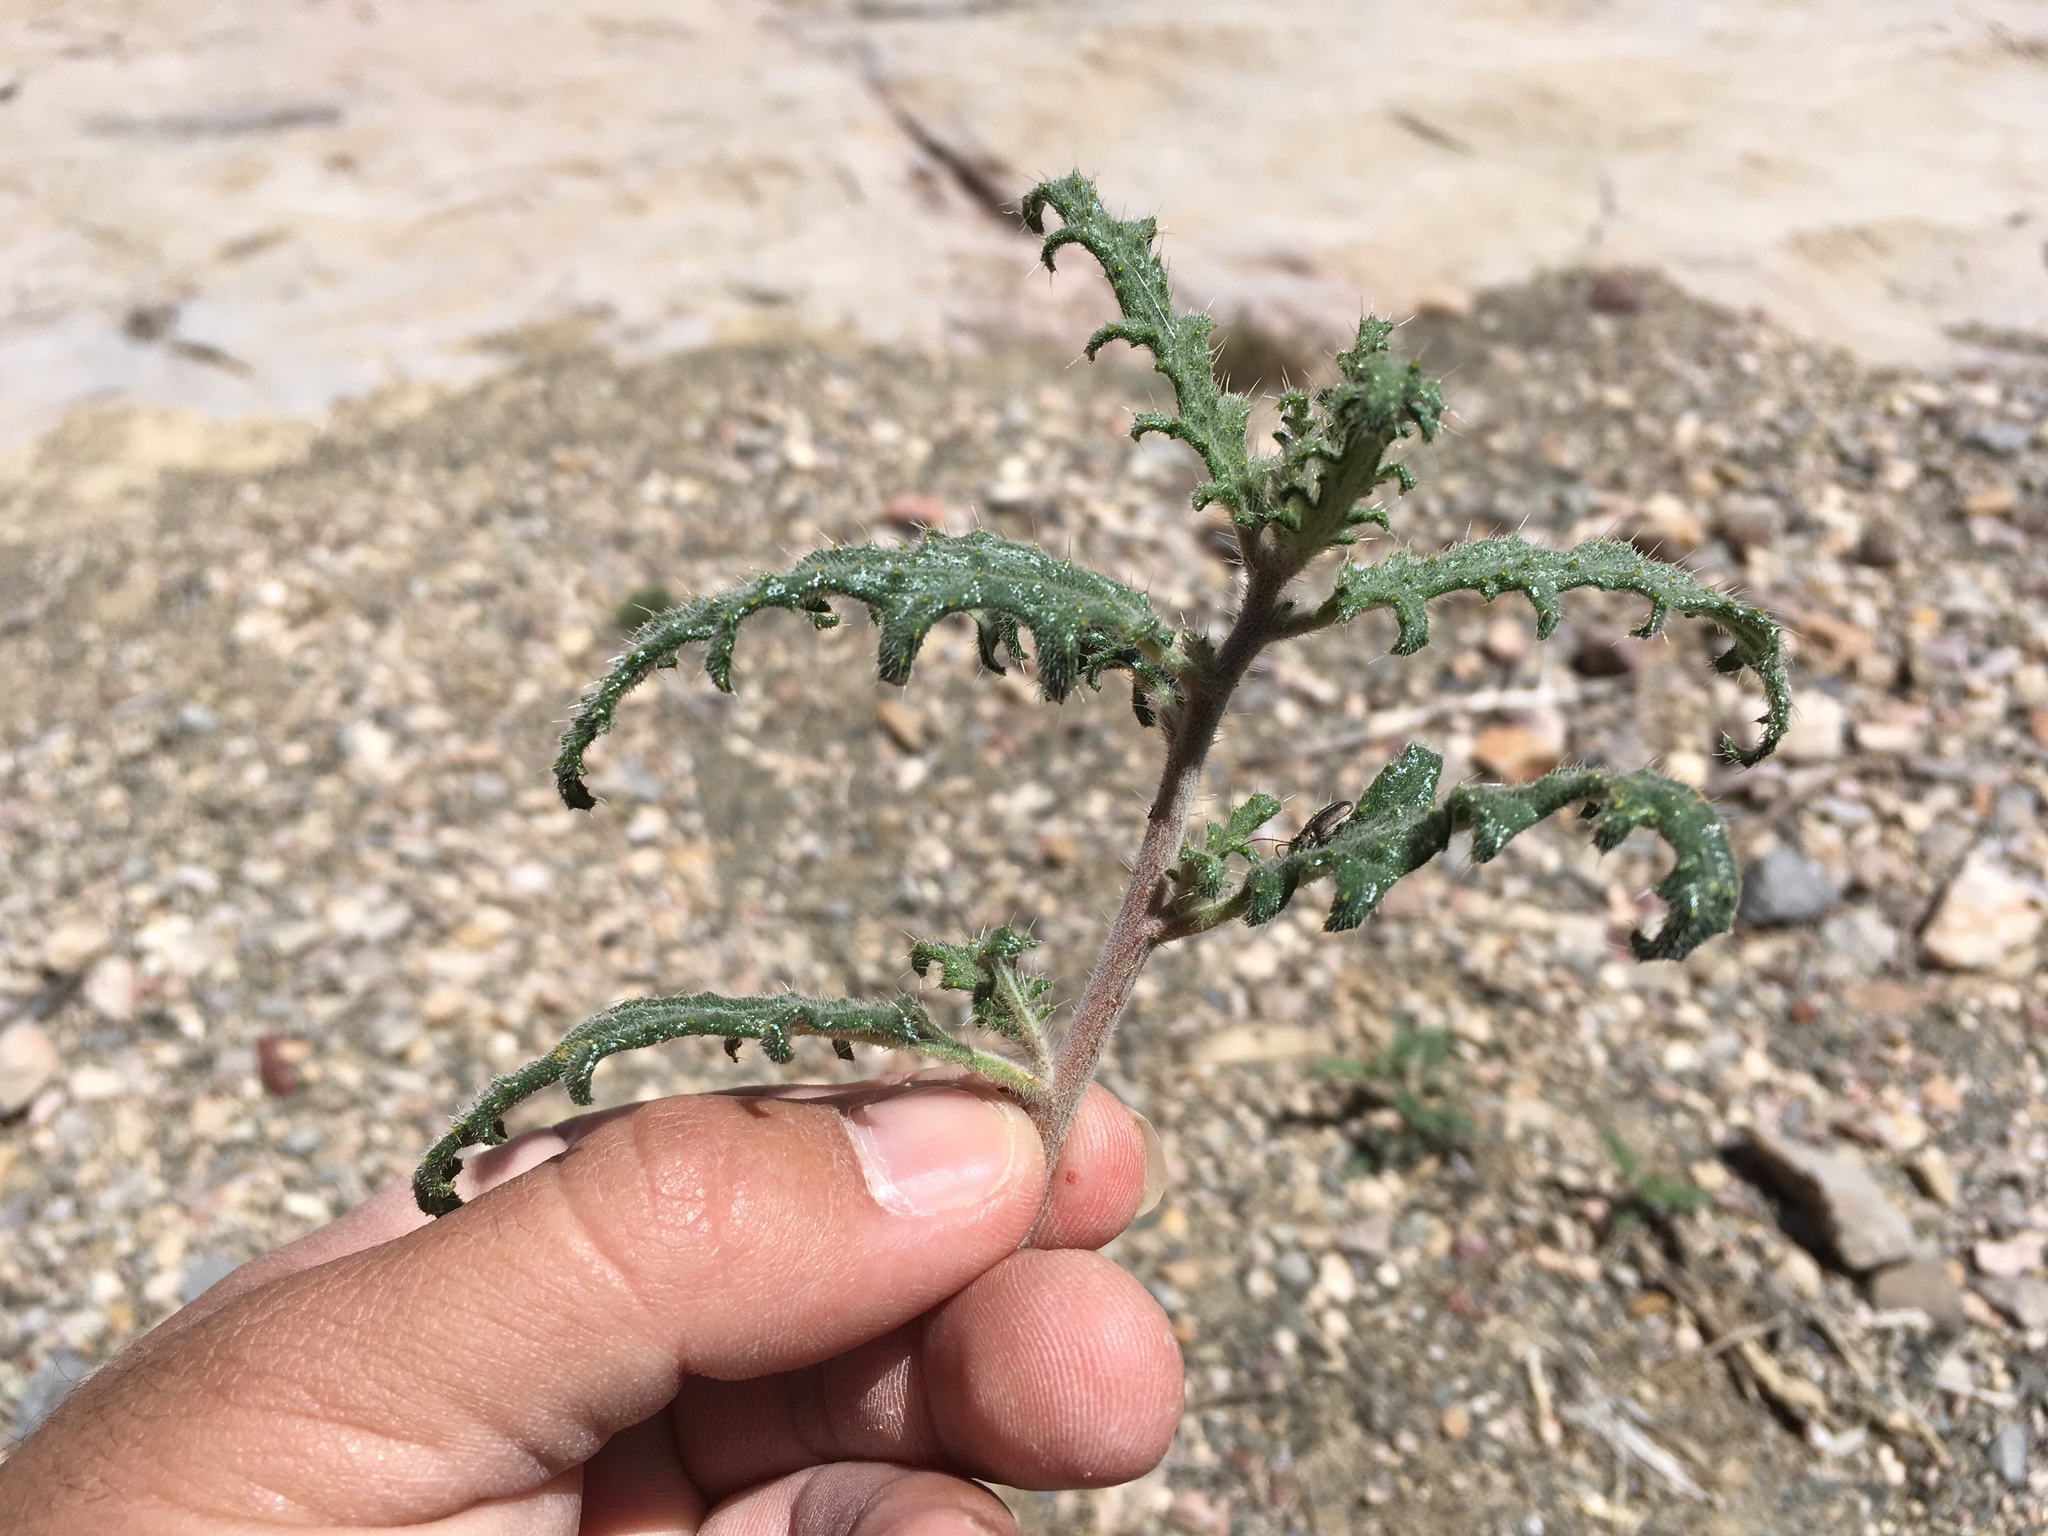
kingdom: Plantae
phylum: Tracheophyta
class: Magnoliopsida
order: Cornales
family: Loasaceae
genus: Cevallia
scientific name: Cevallia sinuata
